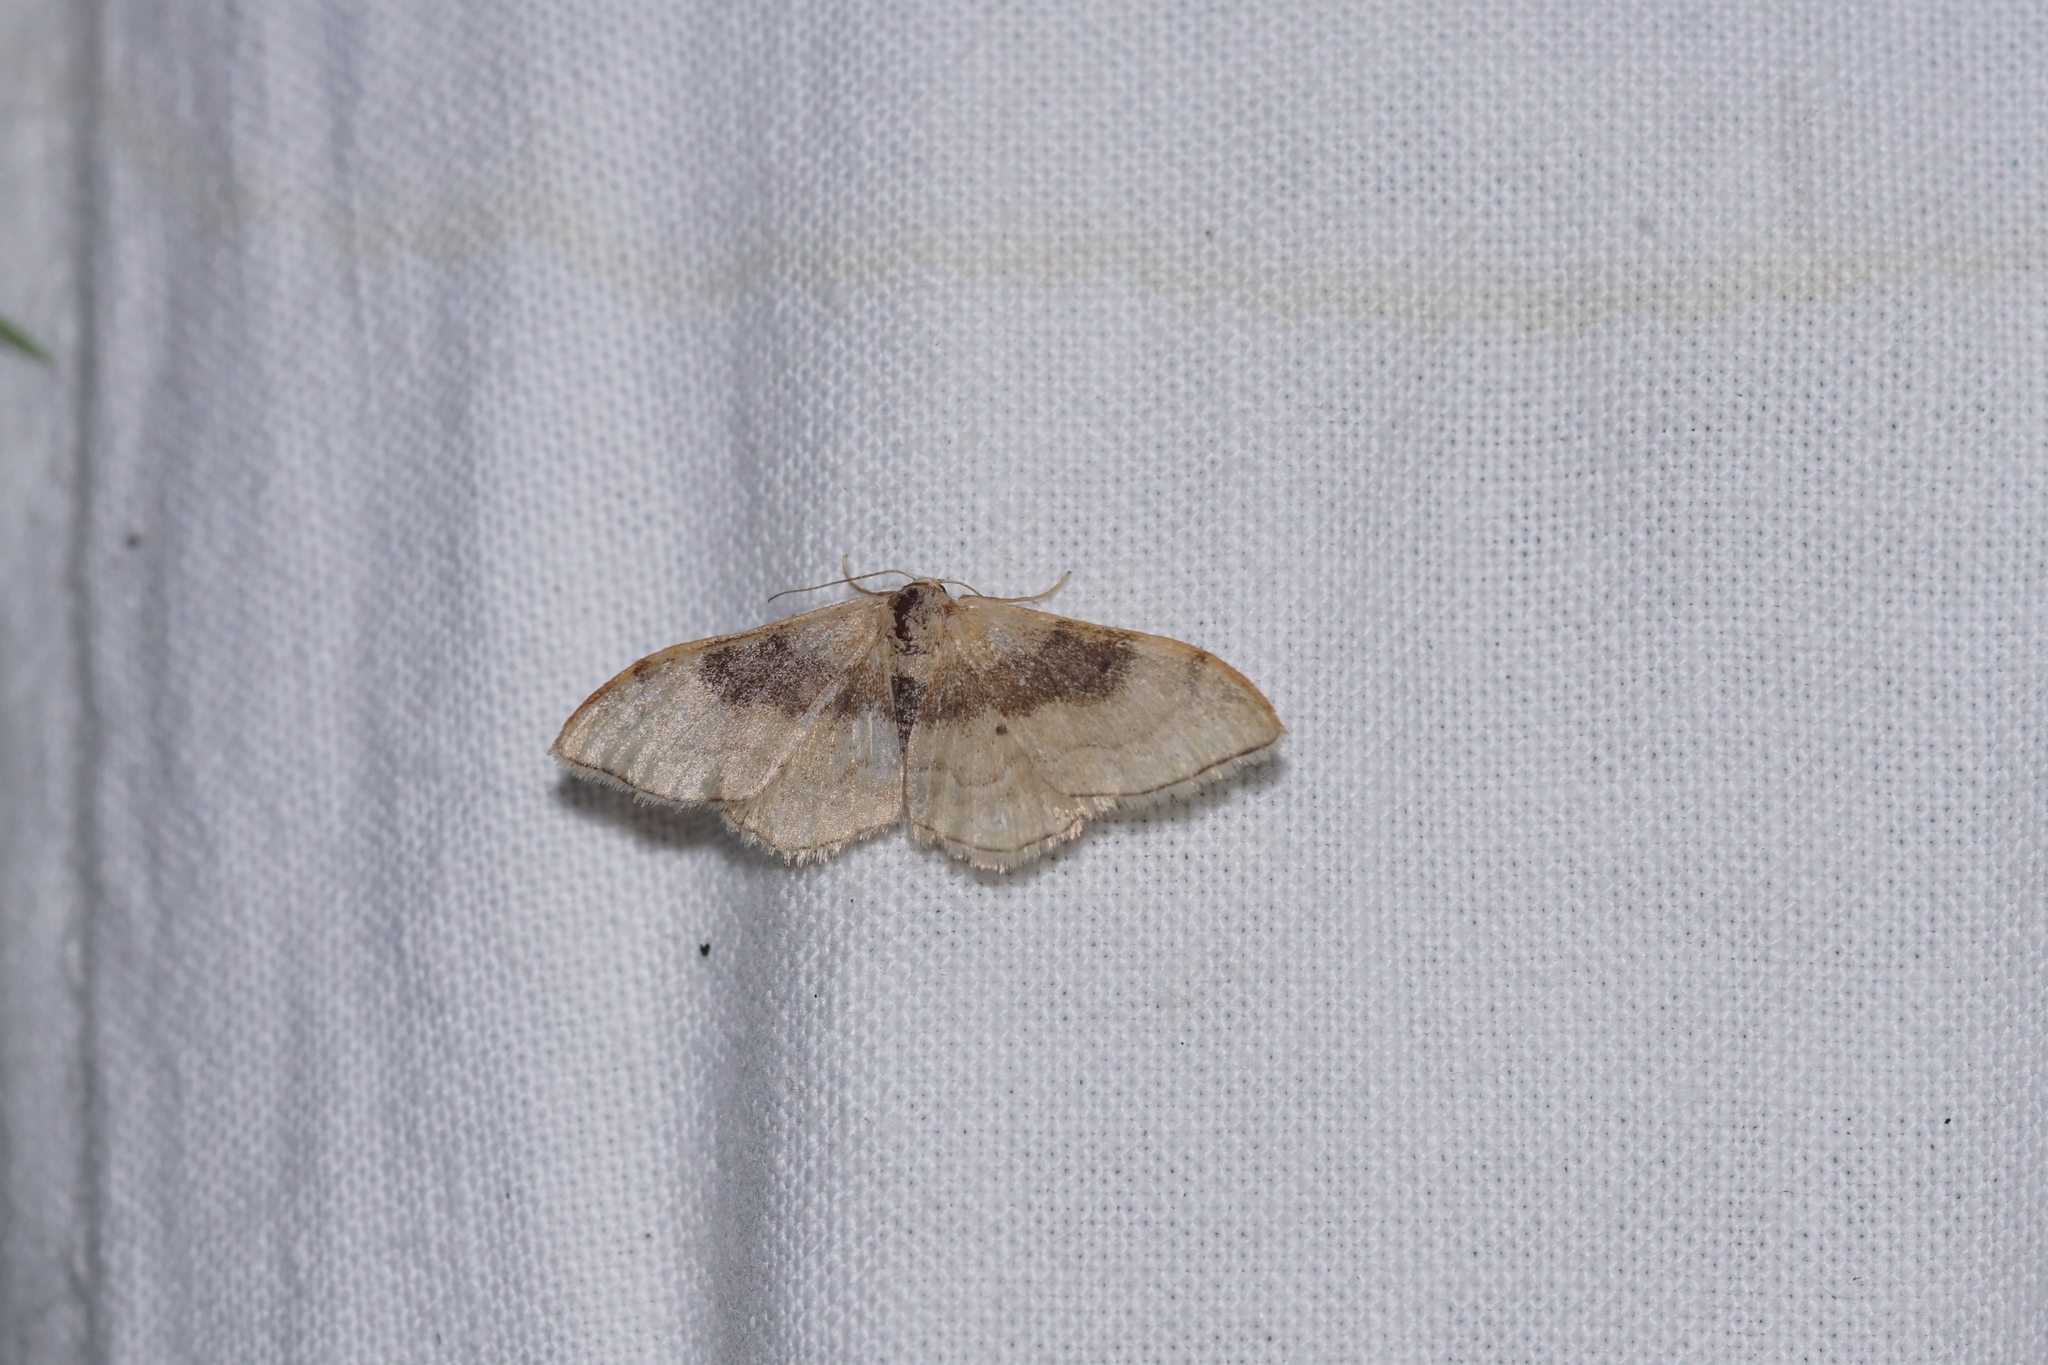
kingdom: Animalia
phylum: Arthropoda
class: Insecta
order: Lepidoptera
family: Geometridae
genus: Idaea
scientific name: Idaea degeneraria
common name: Portland ribbon wave
